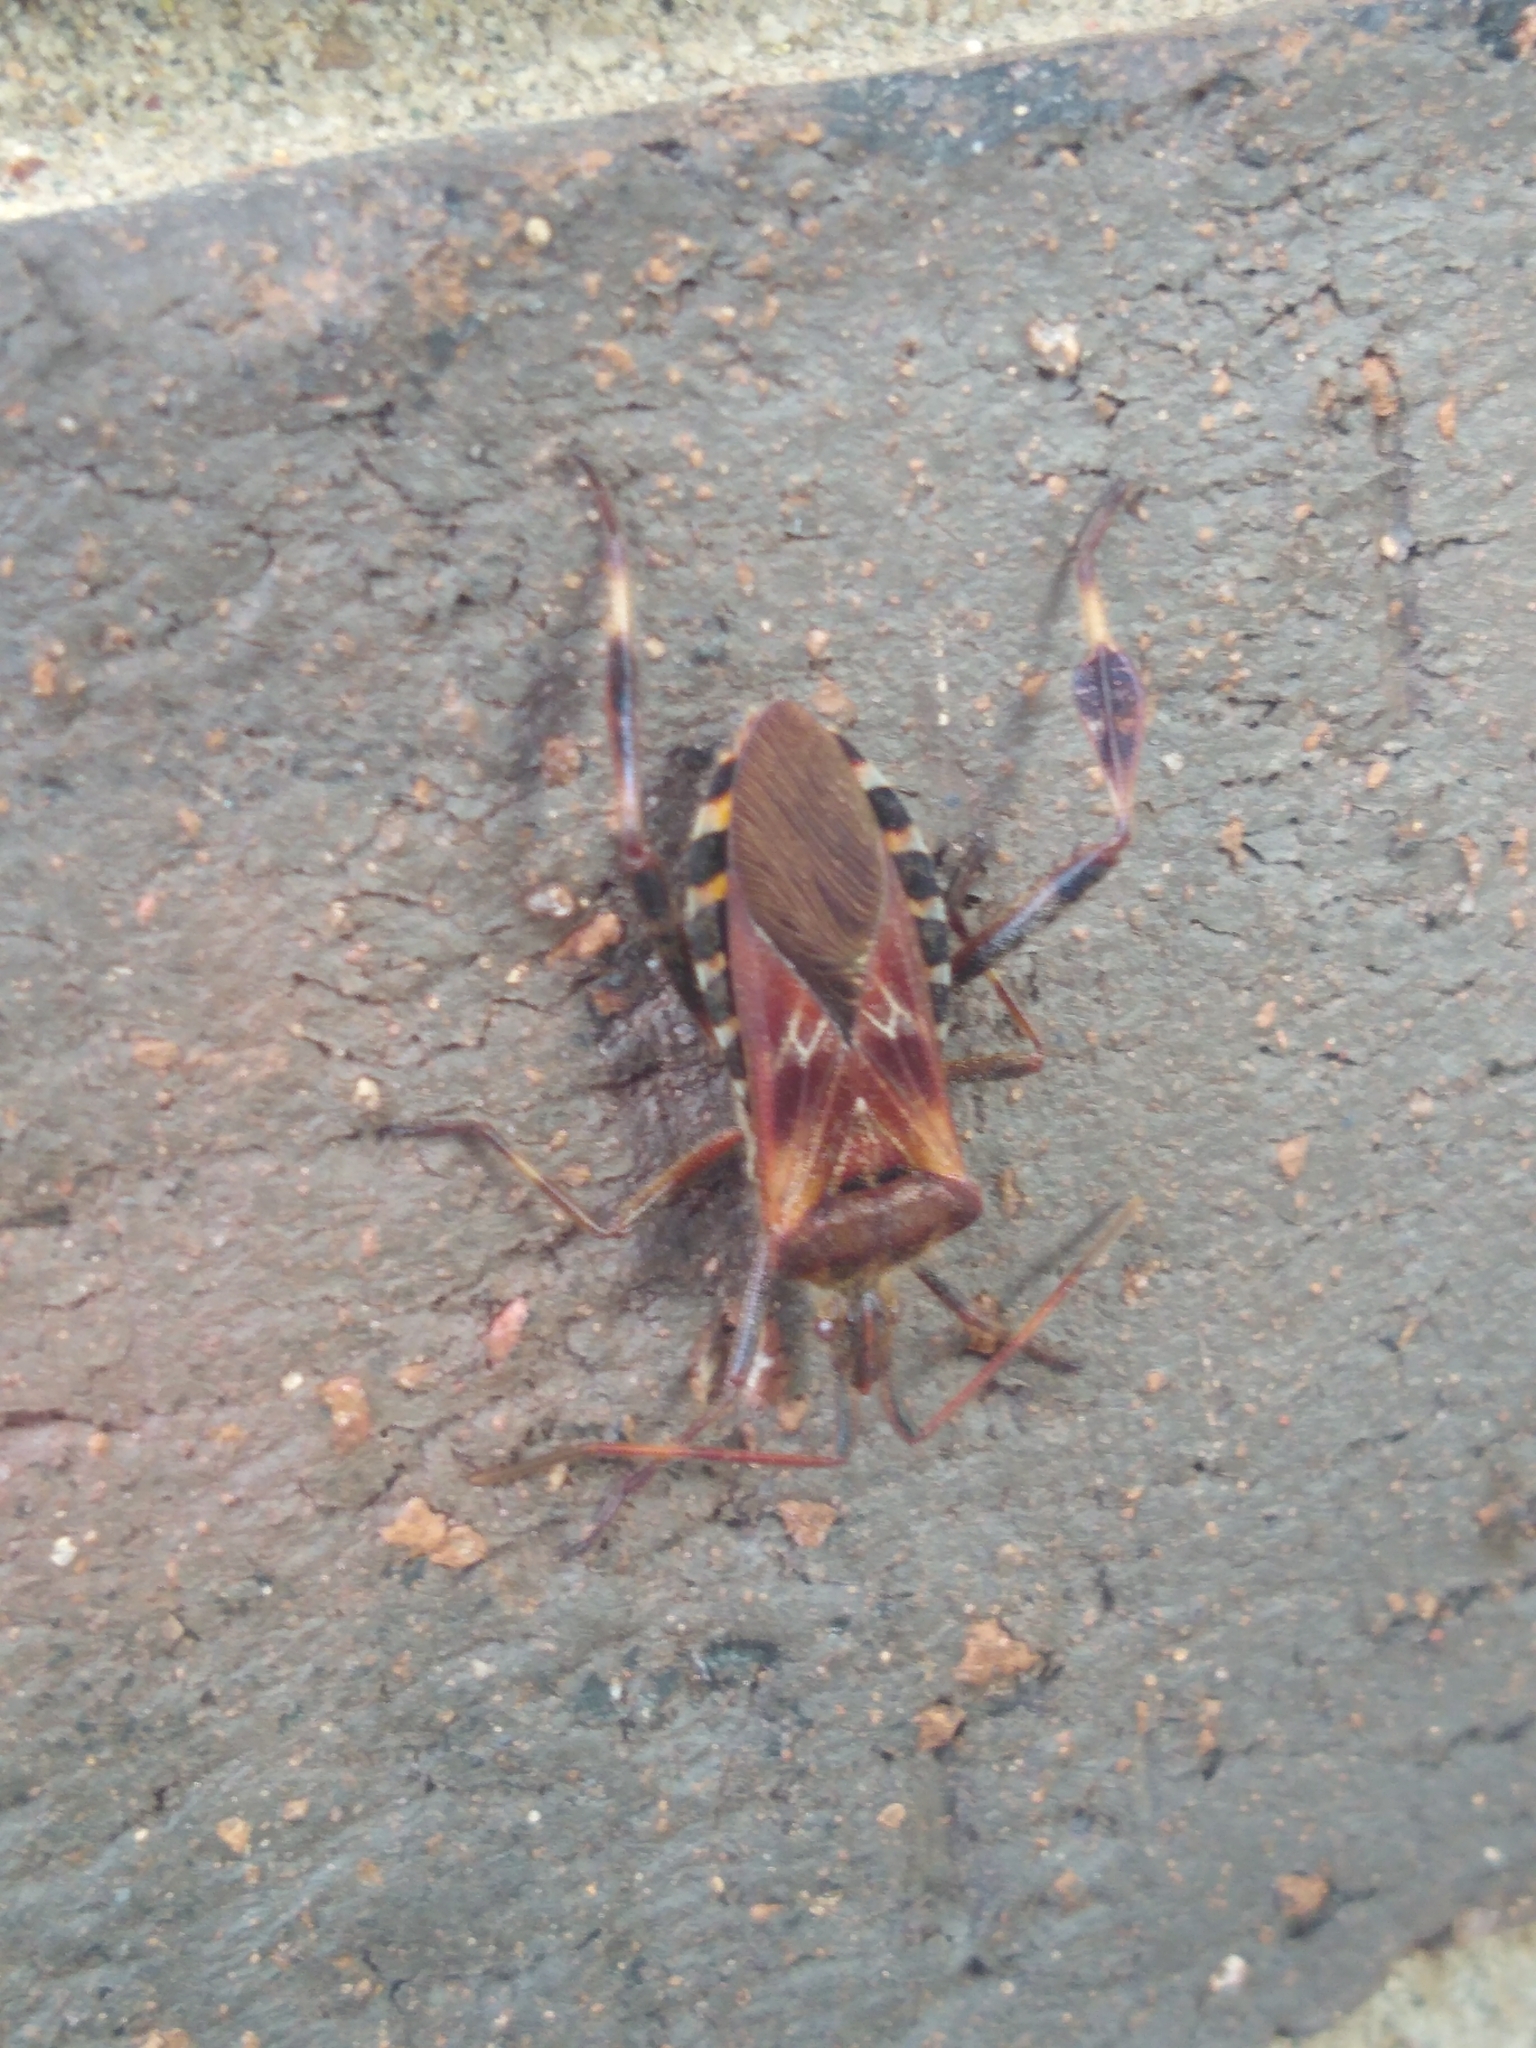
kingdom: Animalia
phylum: Arthropoda
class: Insecta
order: Hemiptera
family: Coreidae
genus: Leptoglossus
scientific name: Leptoglossus occidentalis
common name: Western conifer-seed bug
